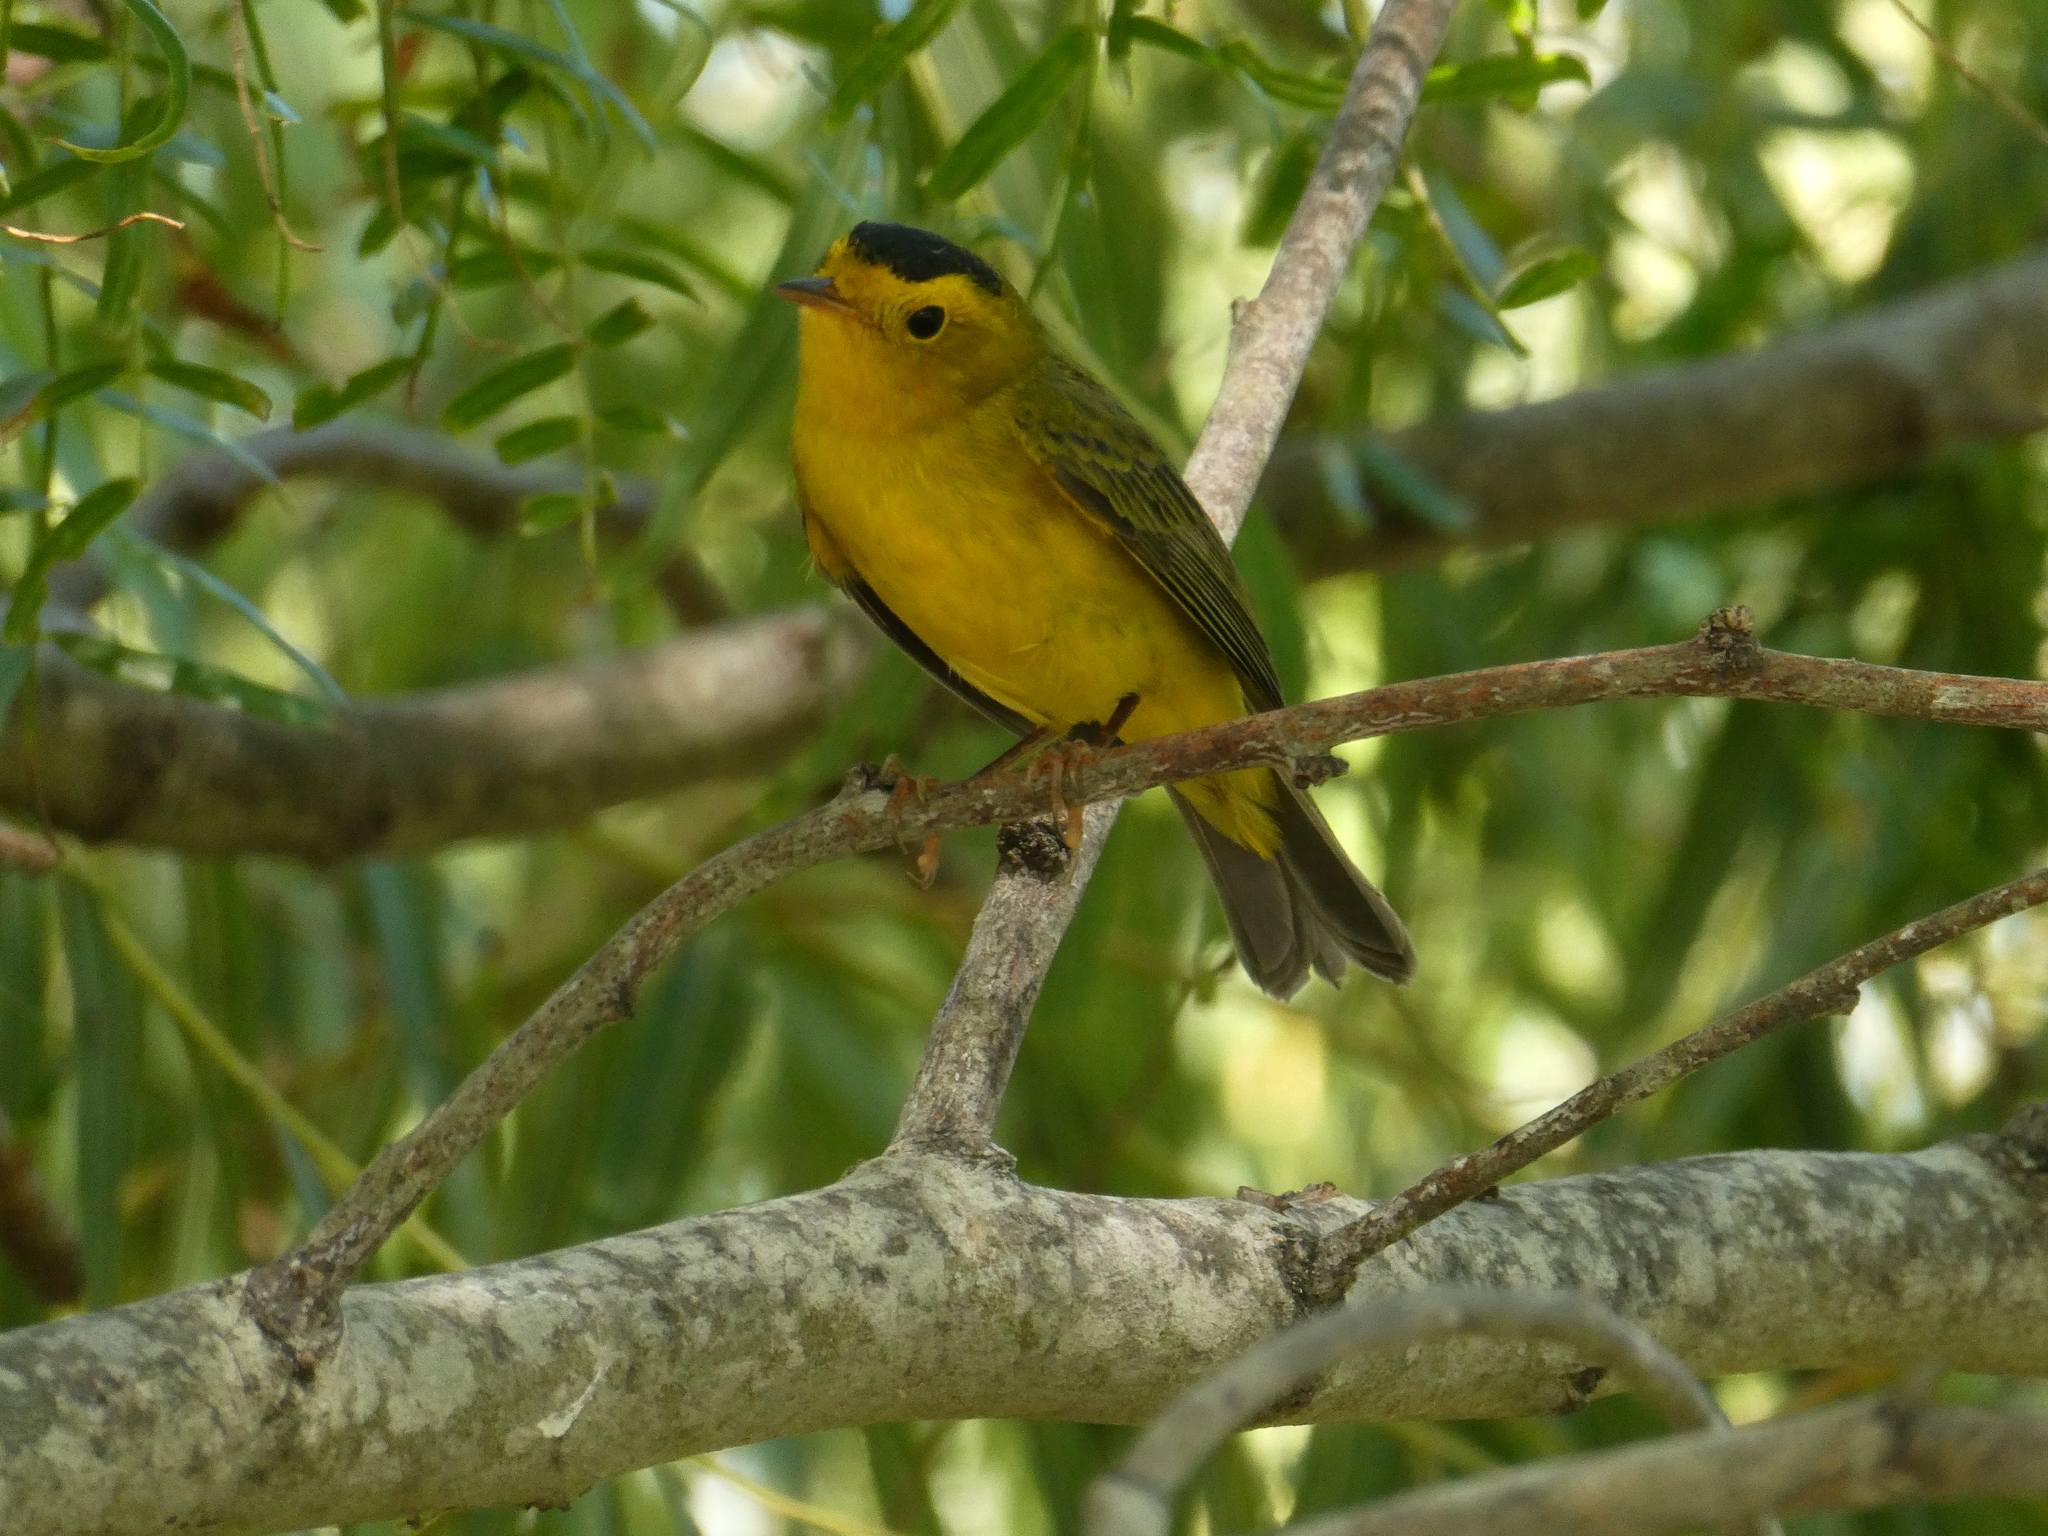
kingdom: Animalia
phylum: Chordata
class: Aves
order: Passeriformes
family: Parulidae
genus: Cardellina
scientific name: Cardellina pusilla
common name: Wilson's warbler
